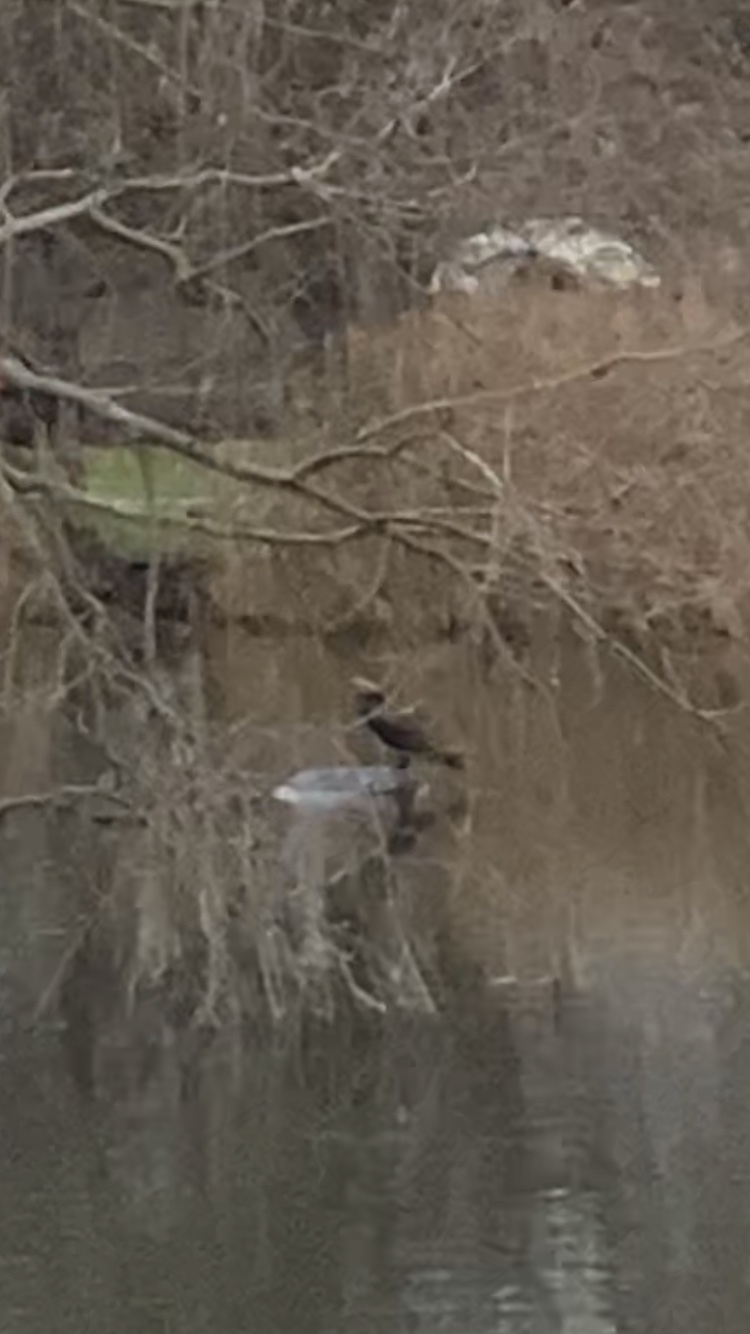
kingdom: Animalia
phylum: Chordata
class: Aves
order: Suliformes
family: Phalacrocoracidae
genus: Phalacrocorax
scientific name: Phalacrocorax carbo
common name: Great cormorant
